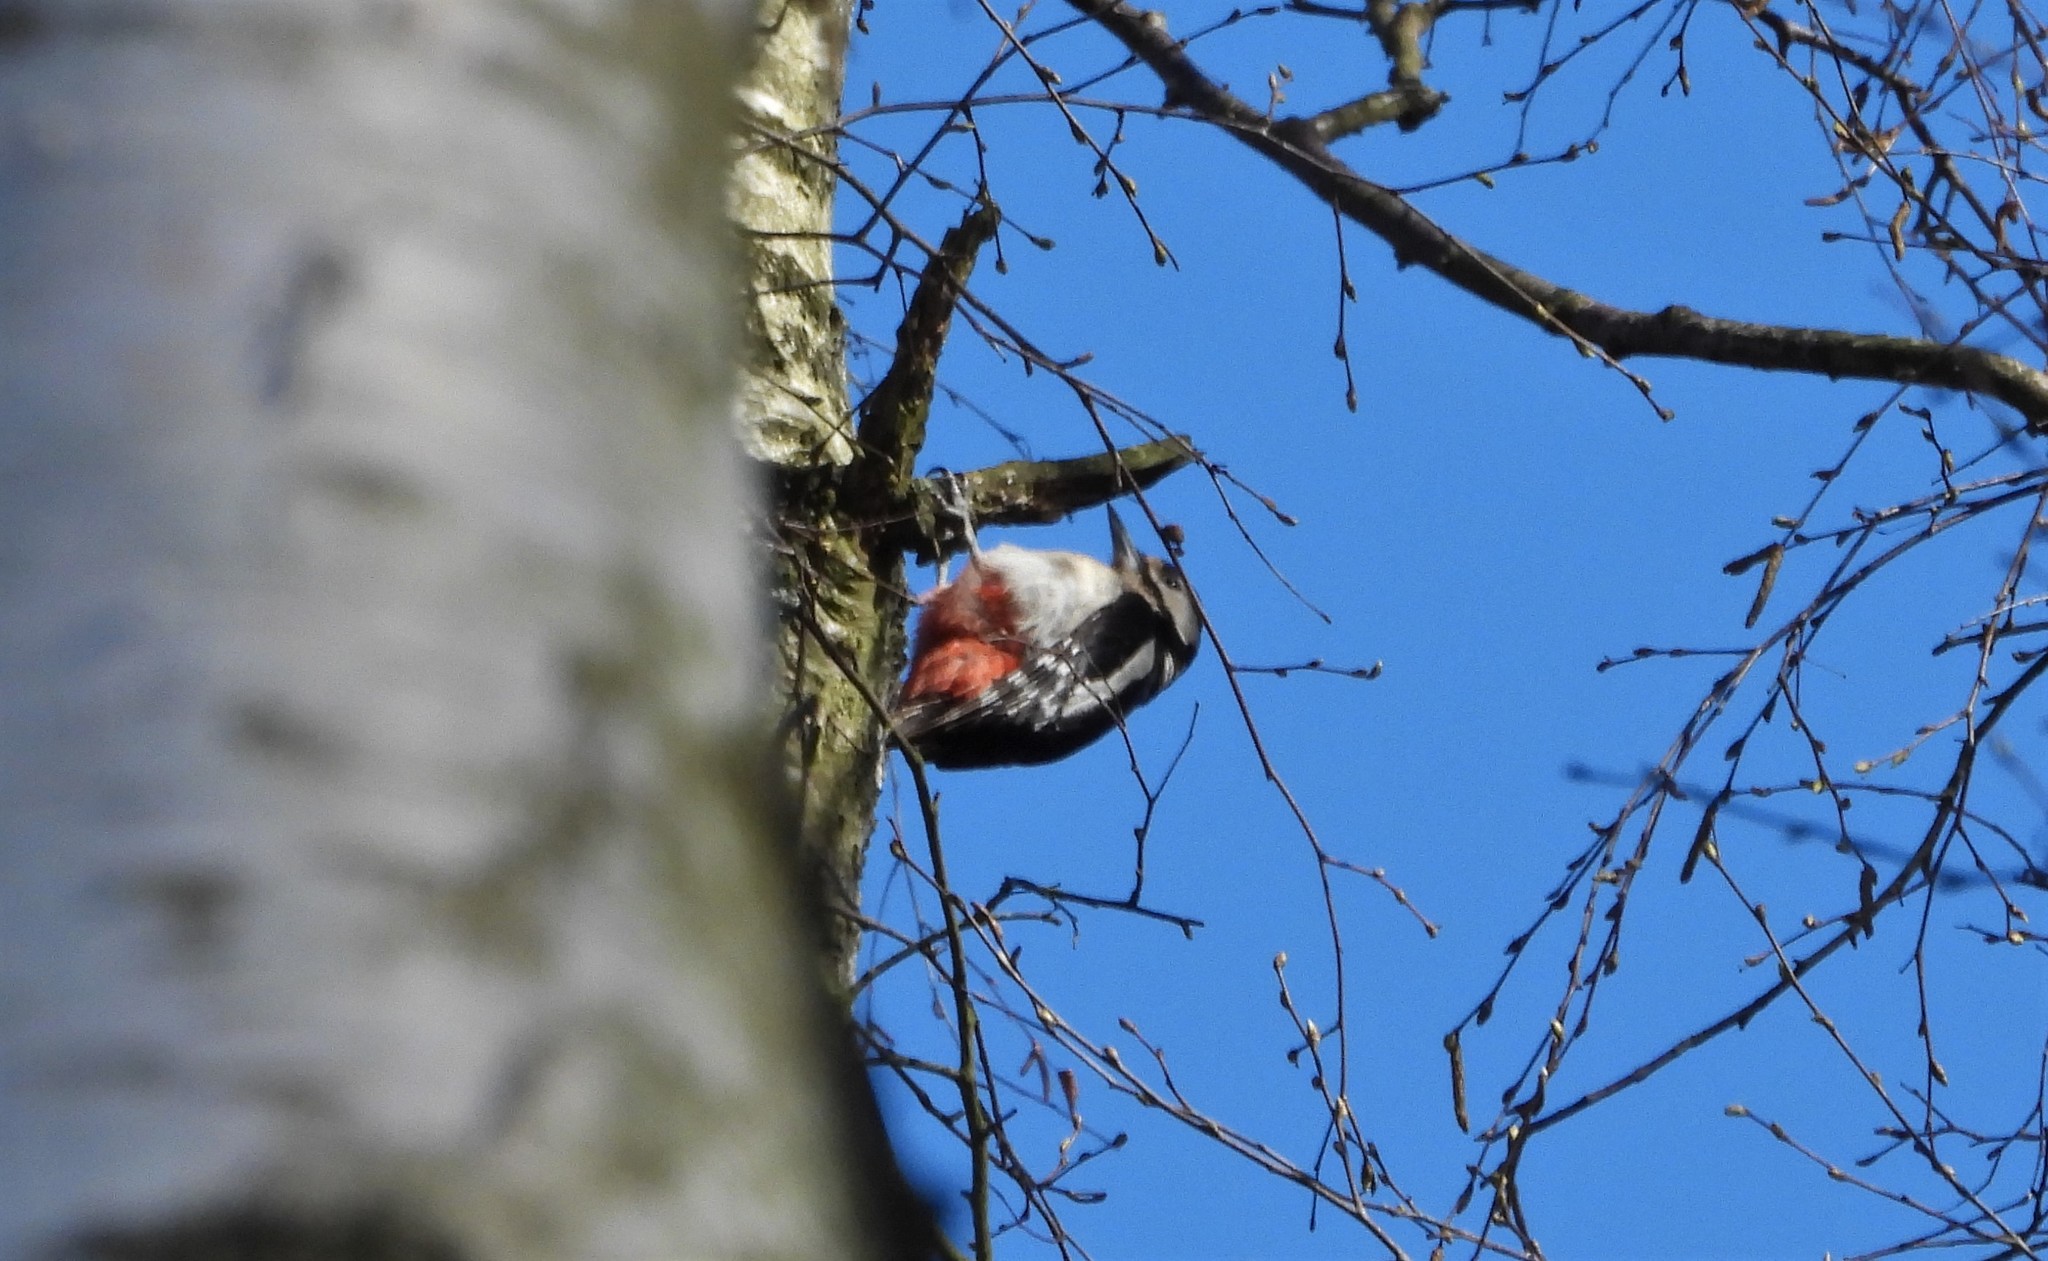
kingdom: Animalia
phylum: Chordata
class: Aves
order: Piciformes
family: Picidae
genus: Dendrocopos
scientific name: Dendrocopos major
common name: Great spotted woodpecker
